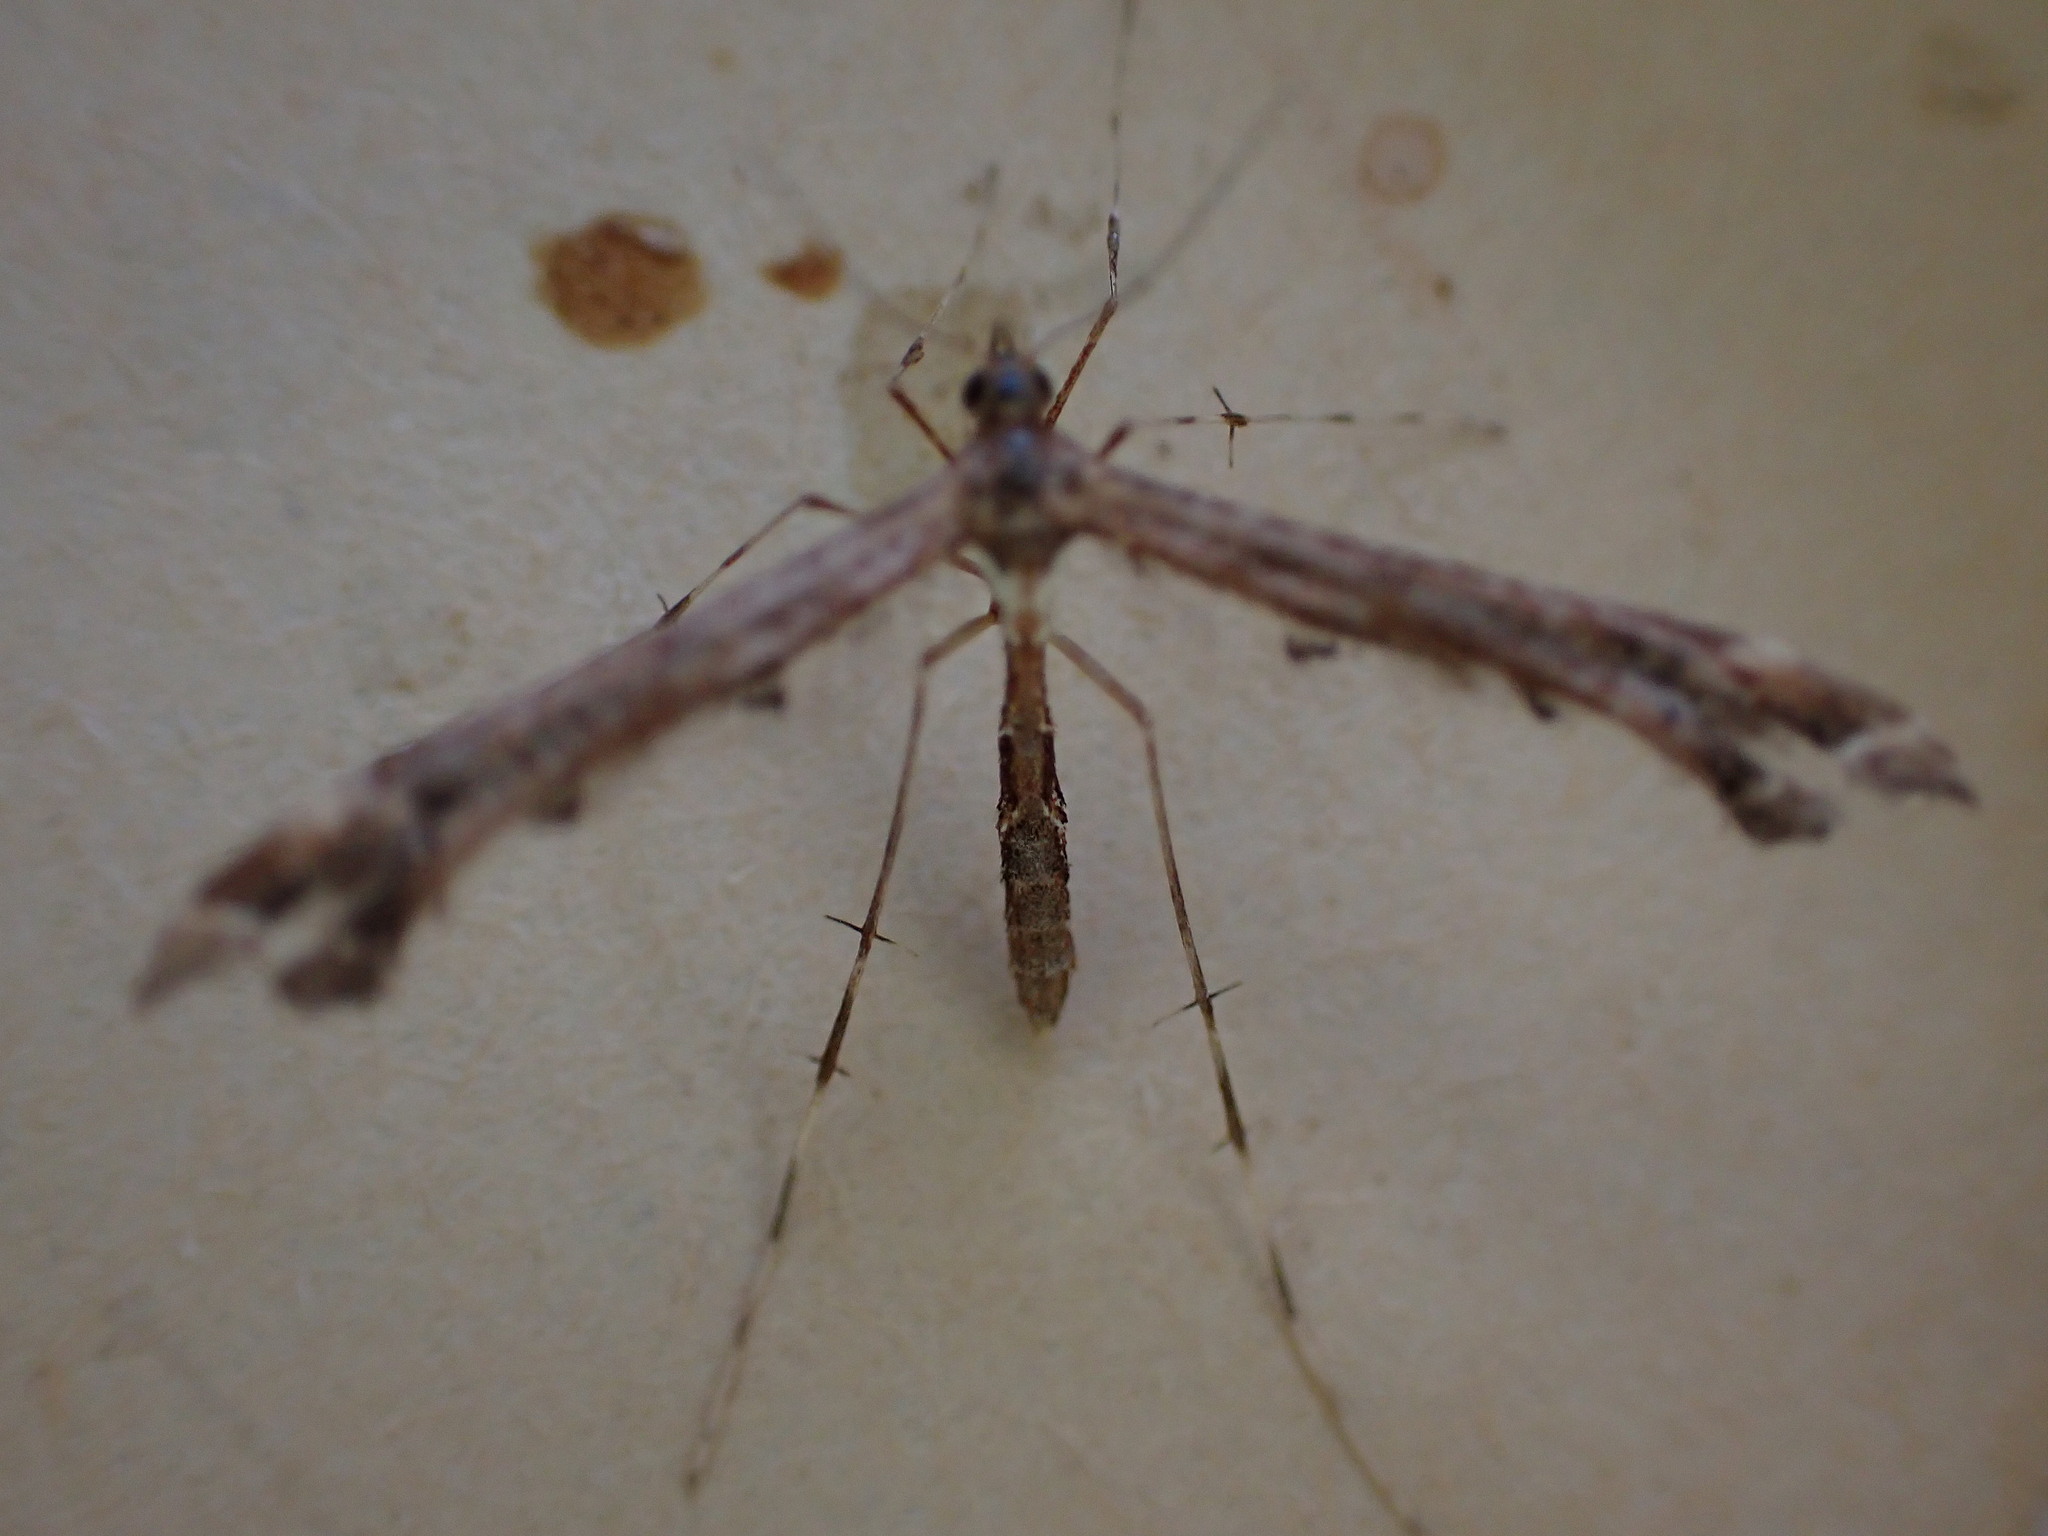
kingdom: Animalia
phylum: Arthropoda
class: Insecta
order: Lepidoptera
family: Pterophoridae
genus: Amblyptilia
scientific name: Amblyptilia acanthadactyla
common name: Beautiful plume
